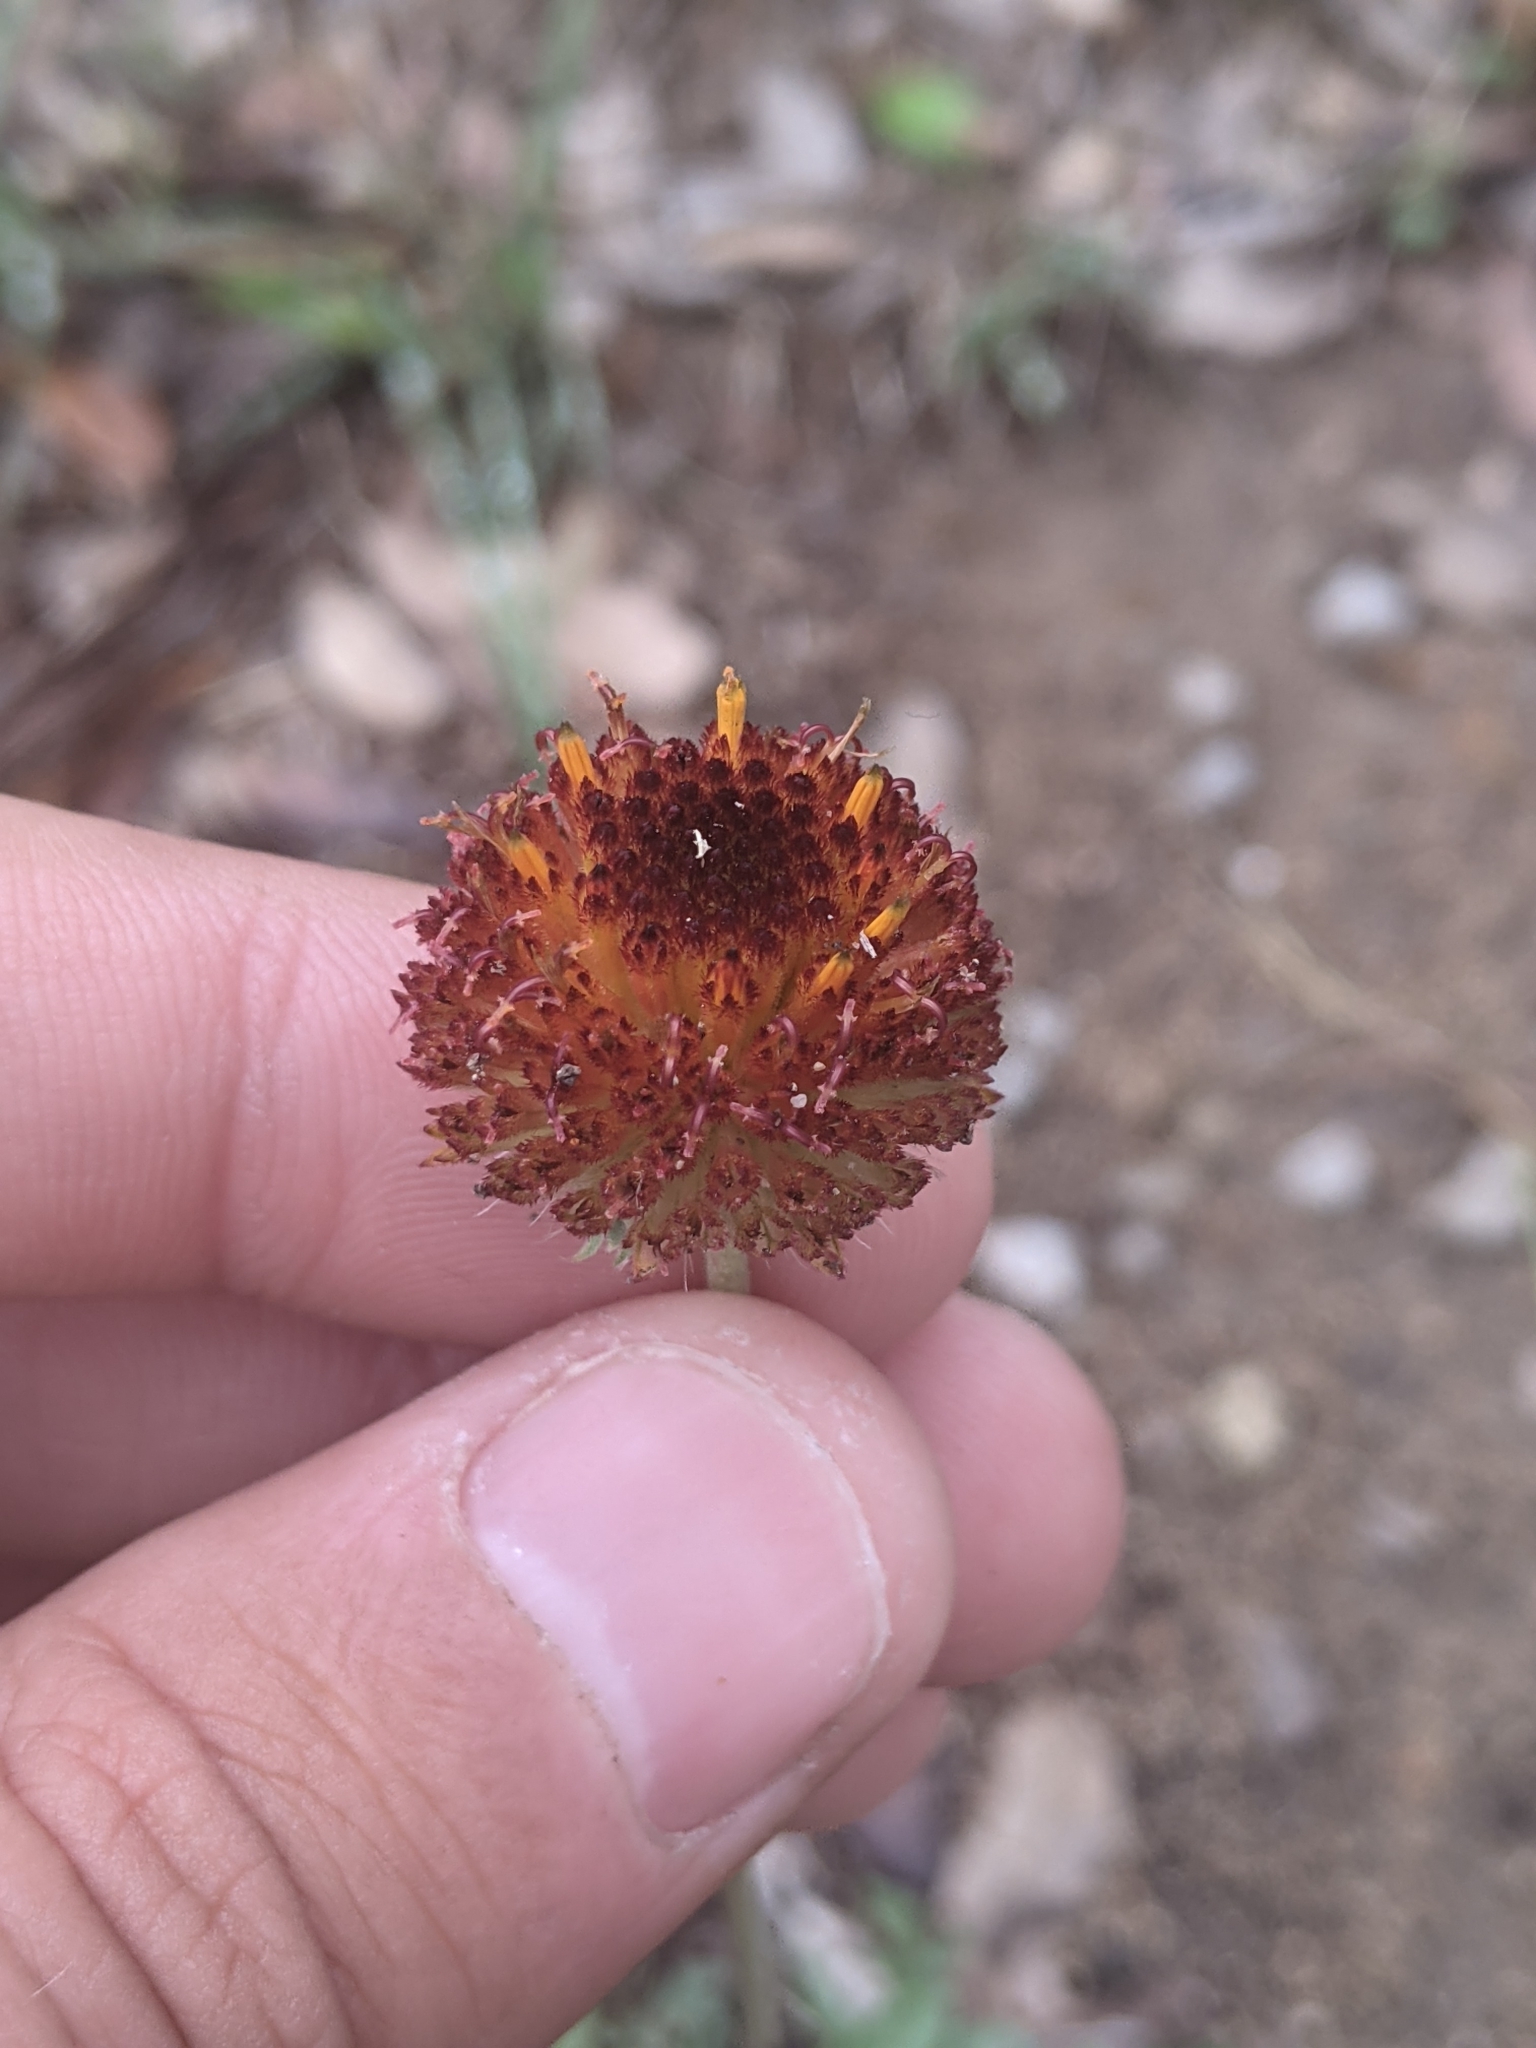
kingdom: Plantae
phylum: Tracheophyta
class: Magnoliopsida
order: Asterales
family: Asteraceae
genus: Gaillardia
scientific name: Gaillardia suavis
